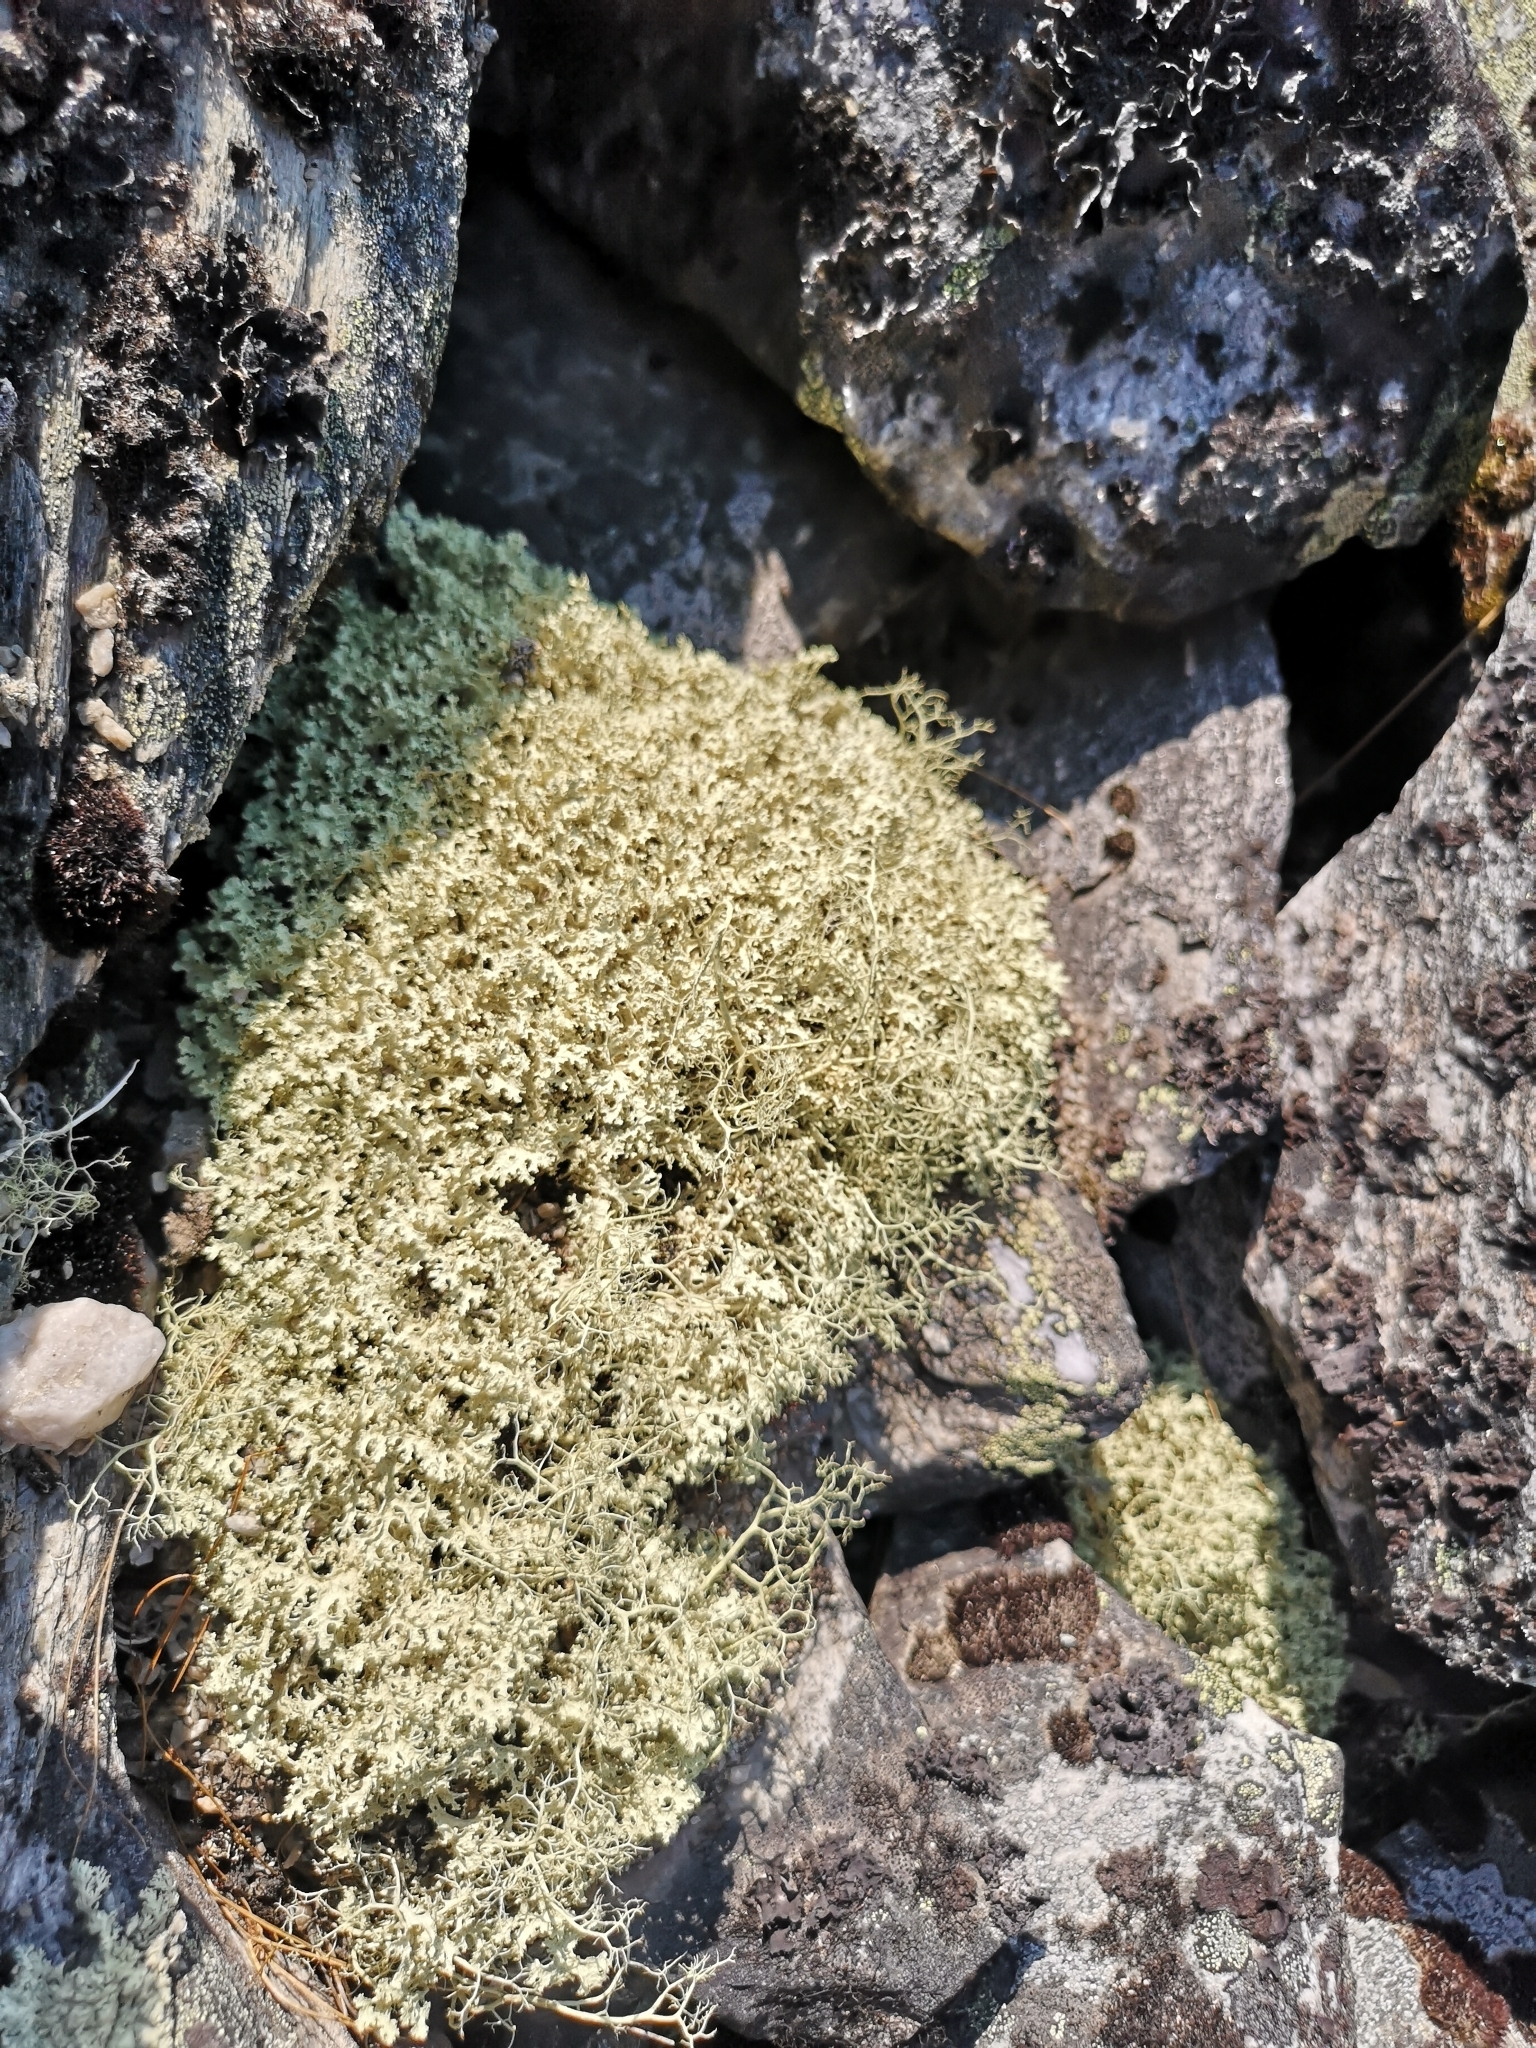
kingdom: Fungi
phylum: Ascomycota
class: Lecanoromycetes
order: Lecanorales
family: Parmeliaceae
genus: Nephromopsis
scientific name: Nephromopsis nivalis
